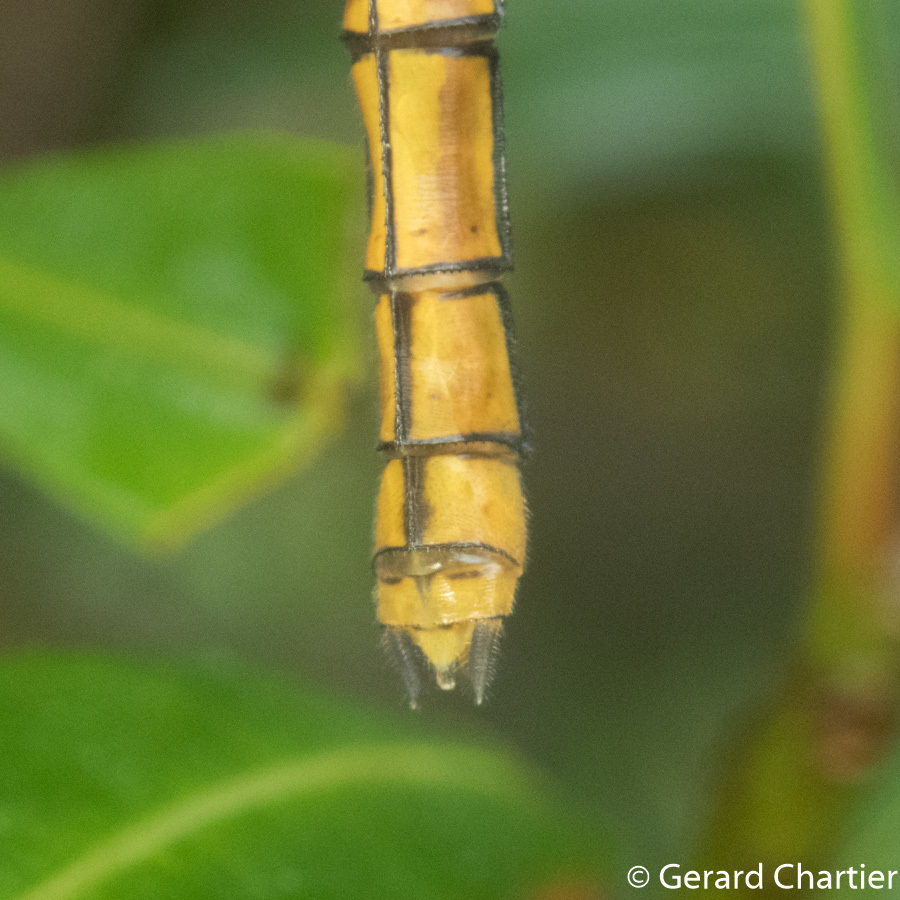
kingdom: Animalia
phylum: Arthropoda
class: Insecta
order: Odonata
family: Libellulidae
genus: Orthetrum
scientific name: Orthetrum glaucum
